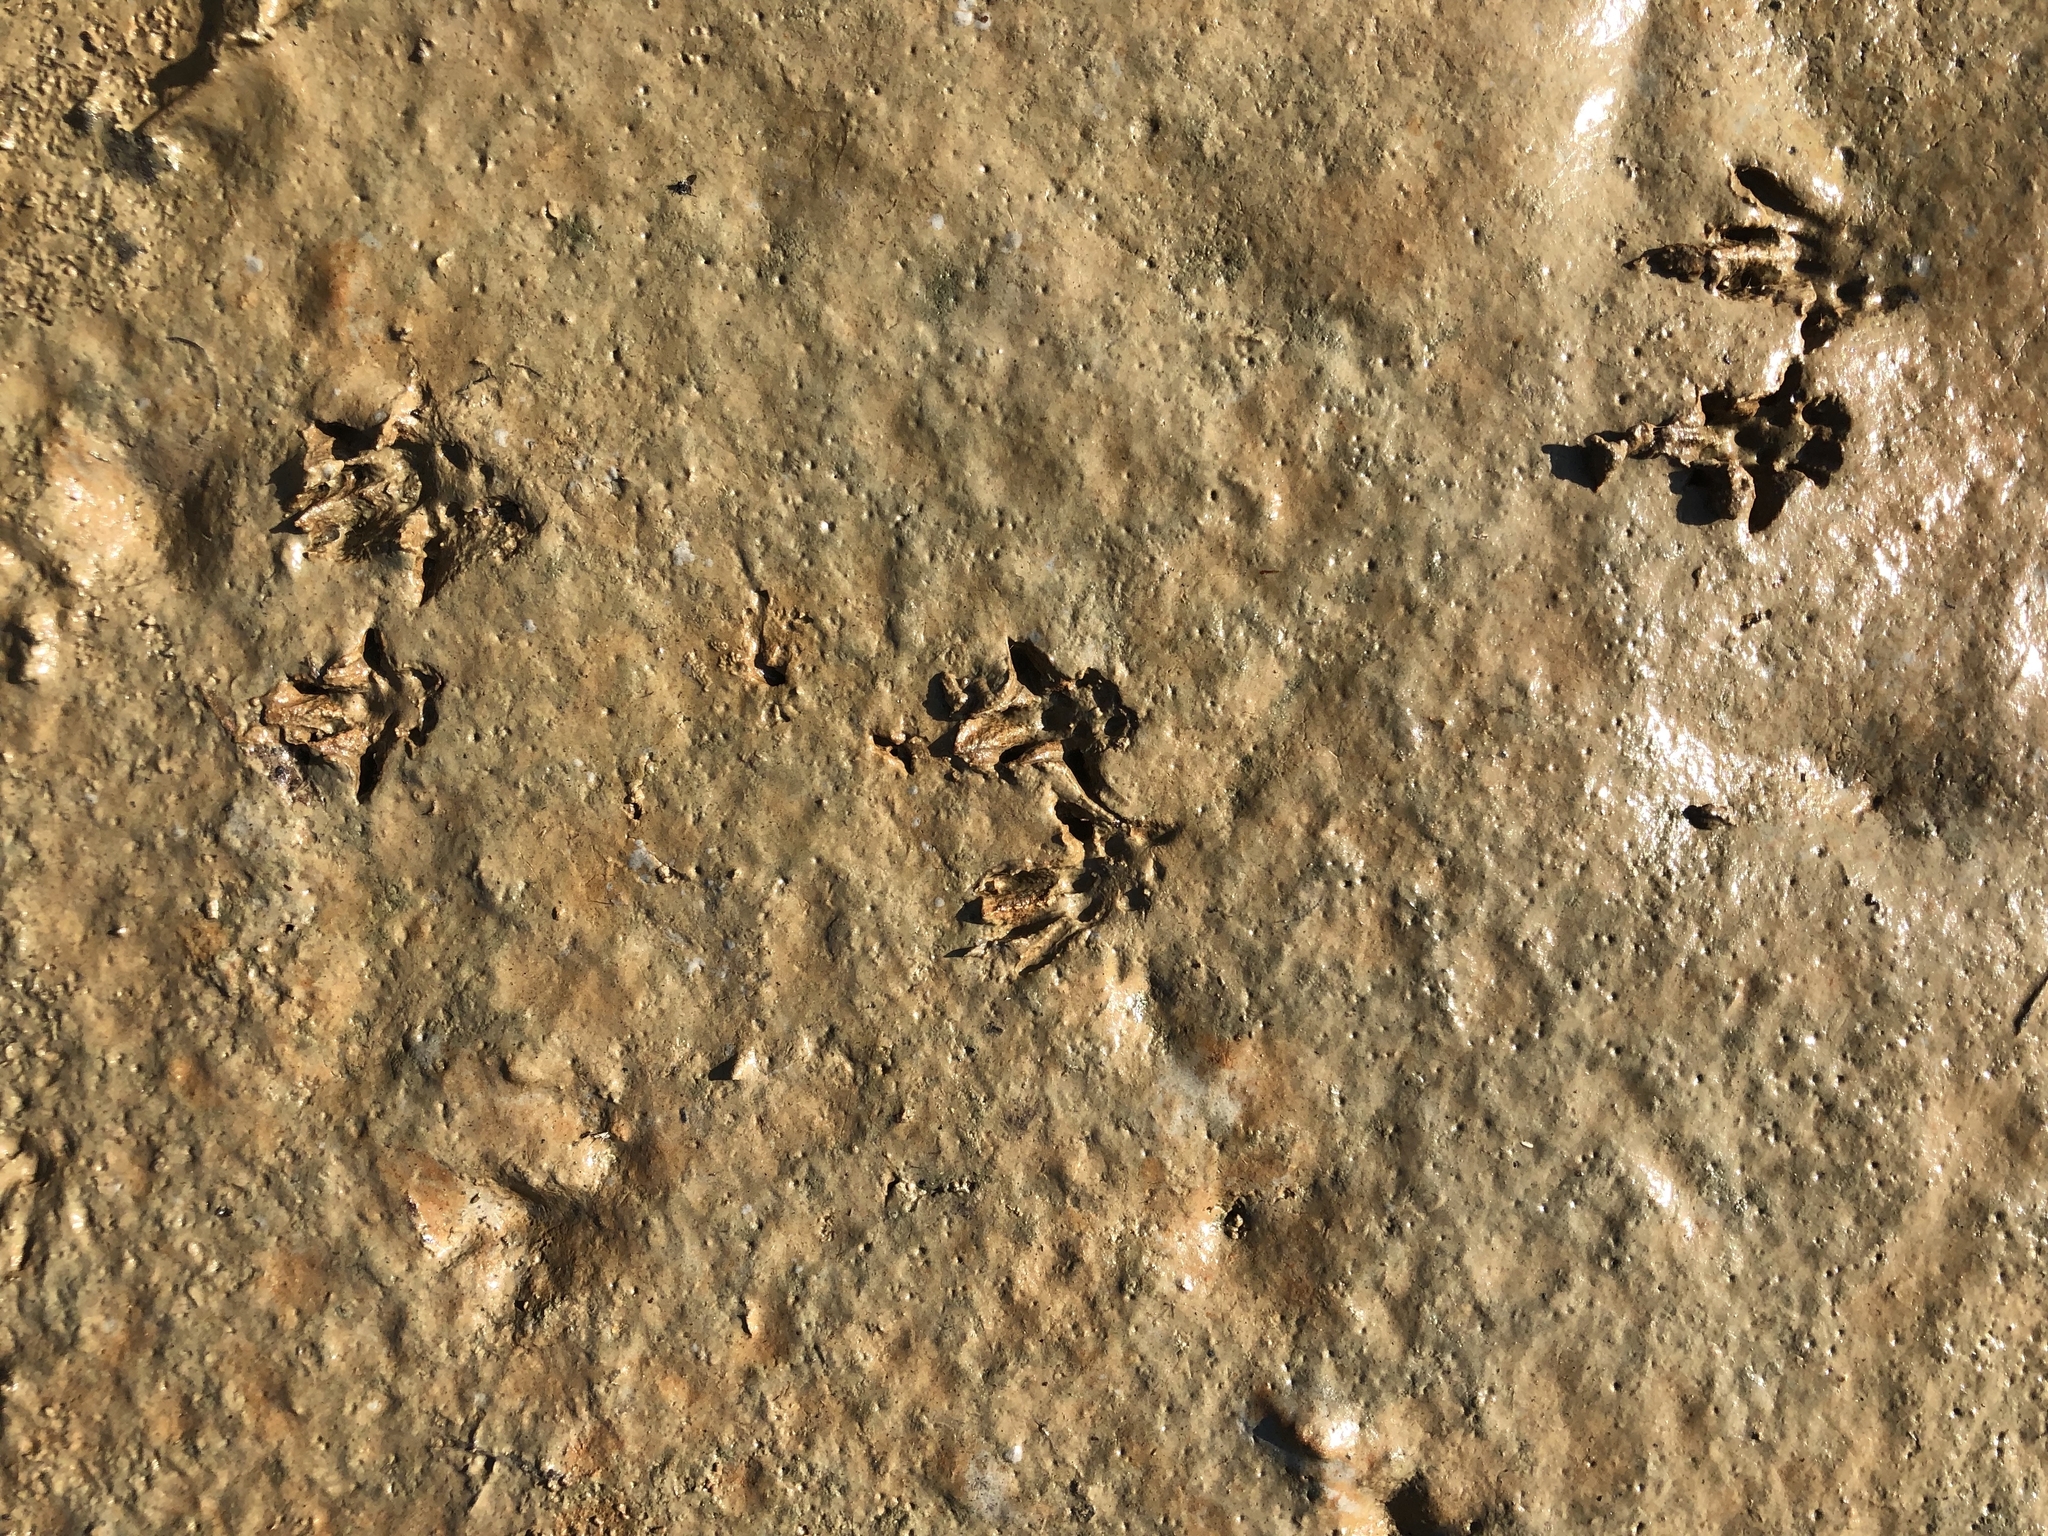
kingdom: Animalia
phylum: Chordata
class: Mammalia
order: Rodentia
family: Muridae
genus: Rattus
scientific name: Rattus norvegicus
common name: Brown rat
